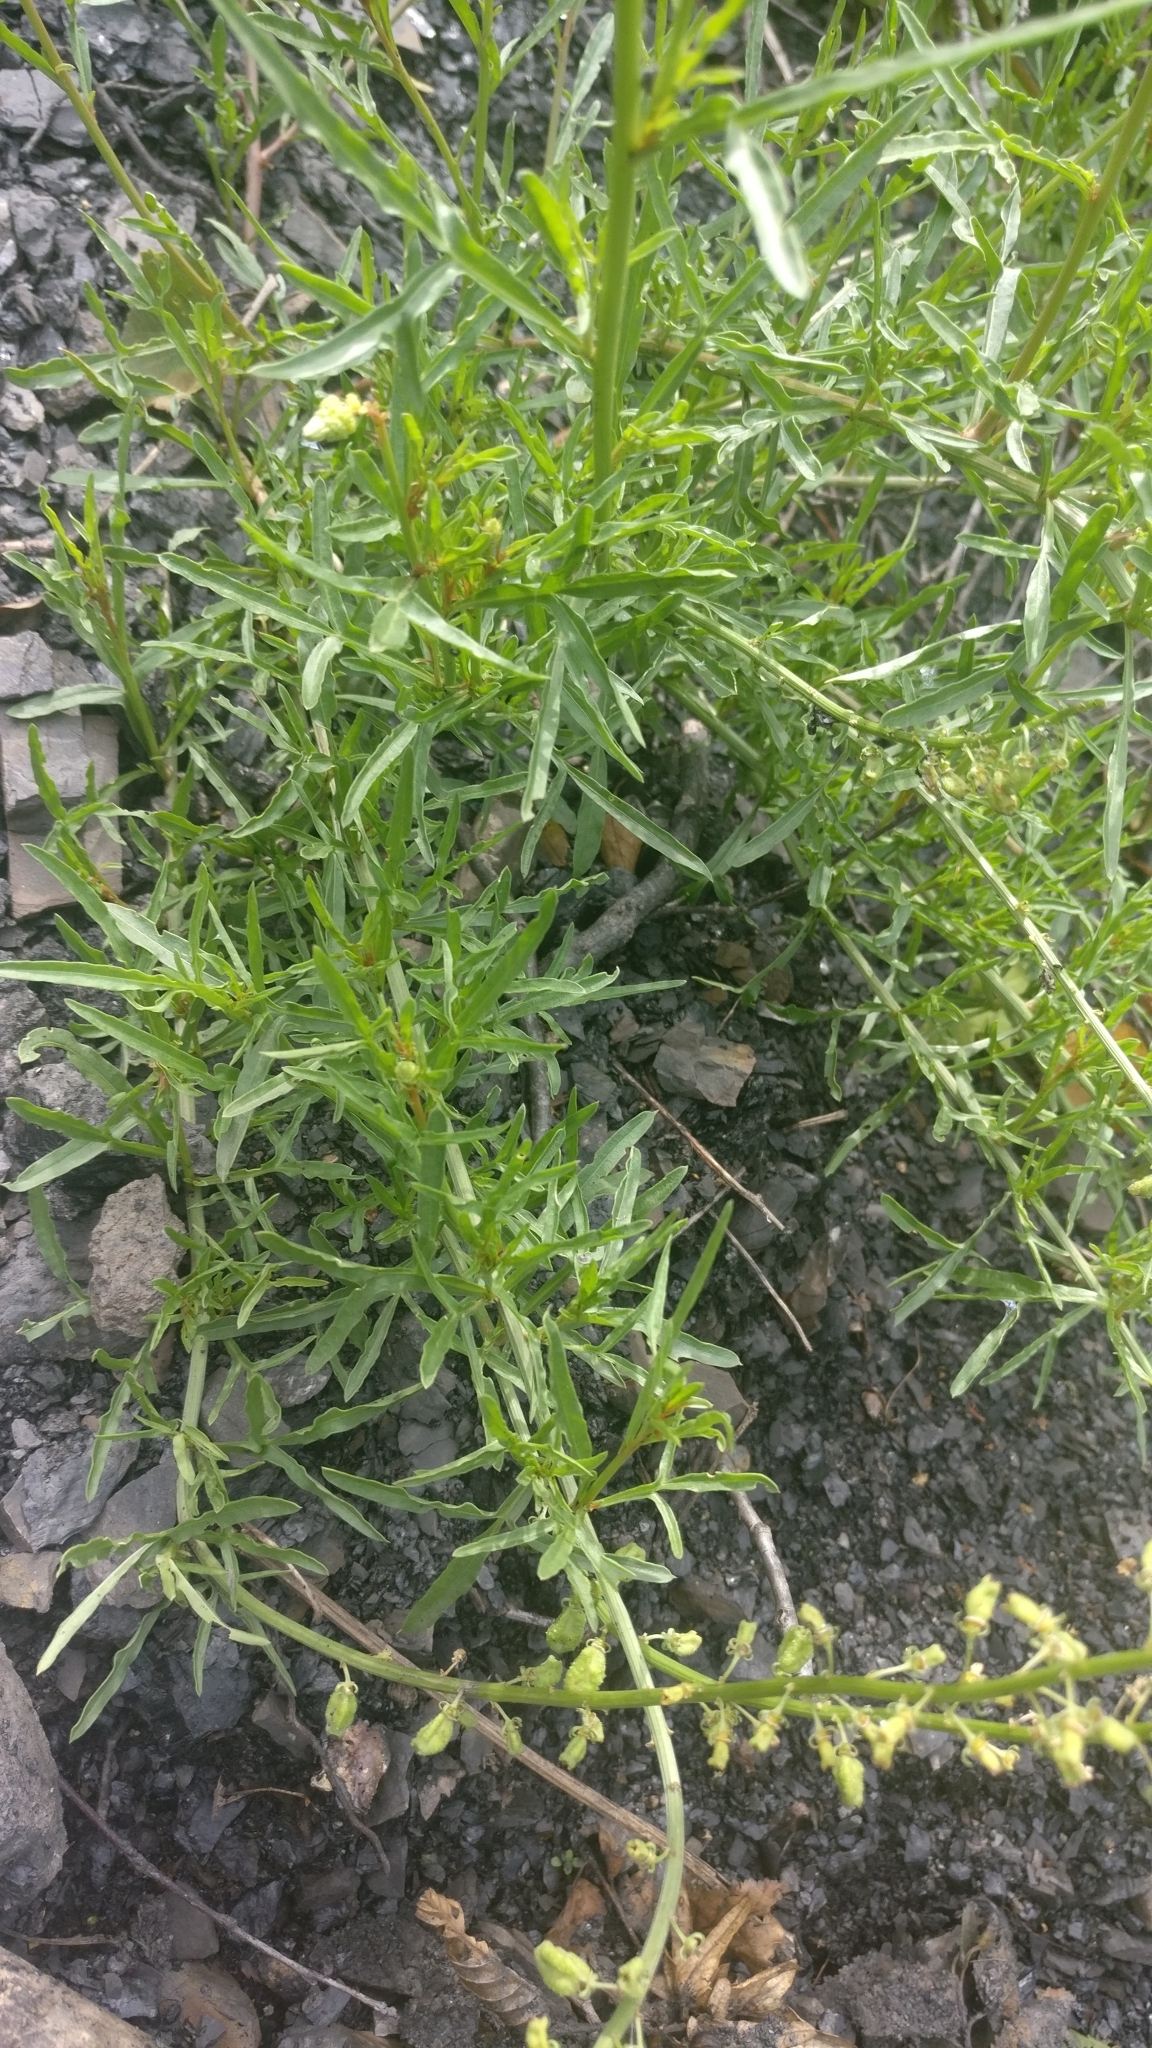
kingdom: Plantae
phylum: Tracheophyta
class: Magnoliopsida
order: Brassicales
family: Resedaceae
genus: Reseda
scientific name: Reseda lutea
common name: Wild mignonette
